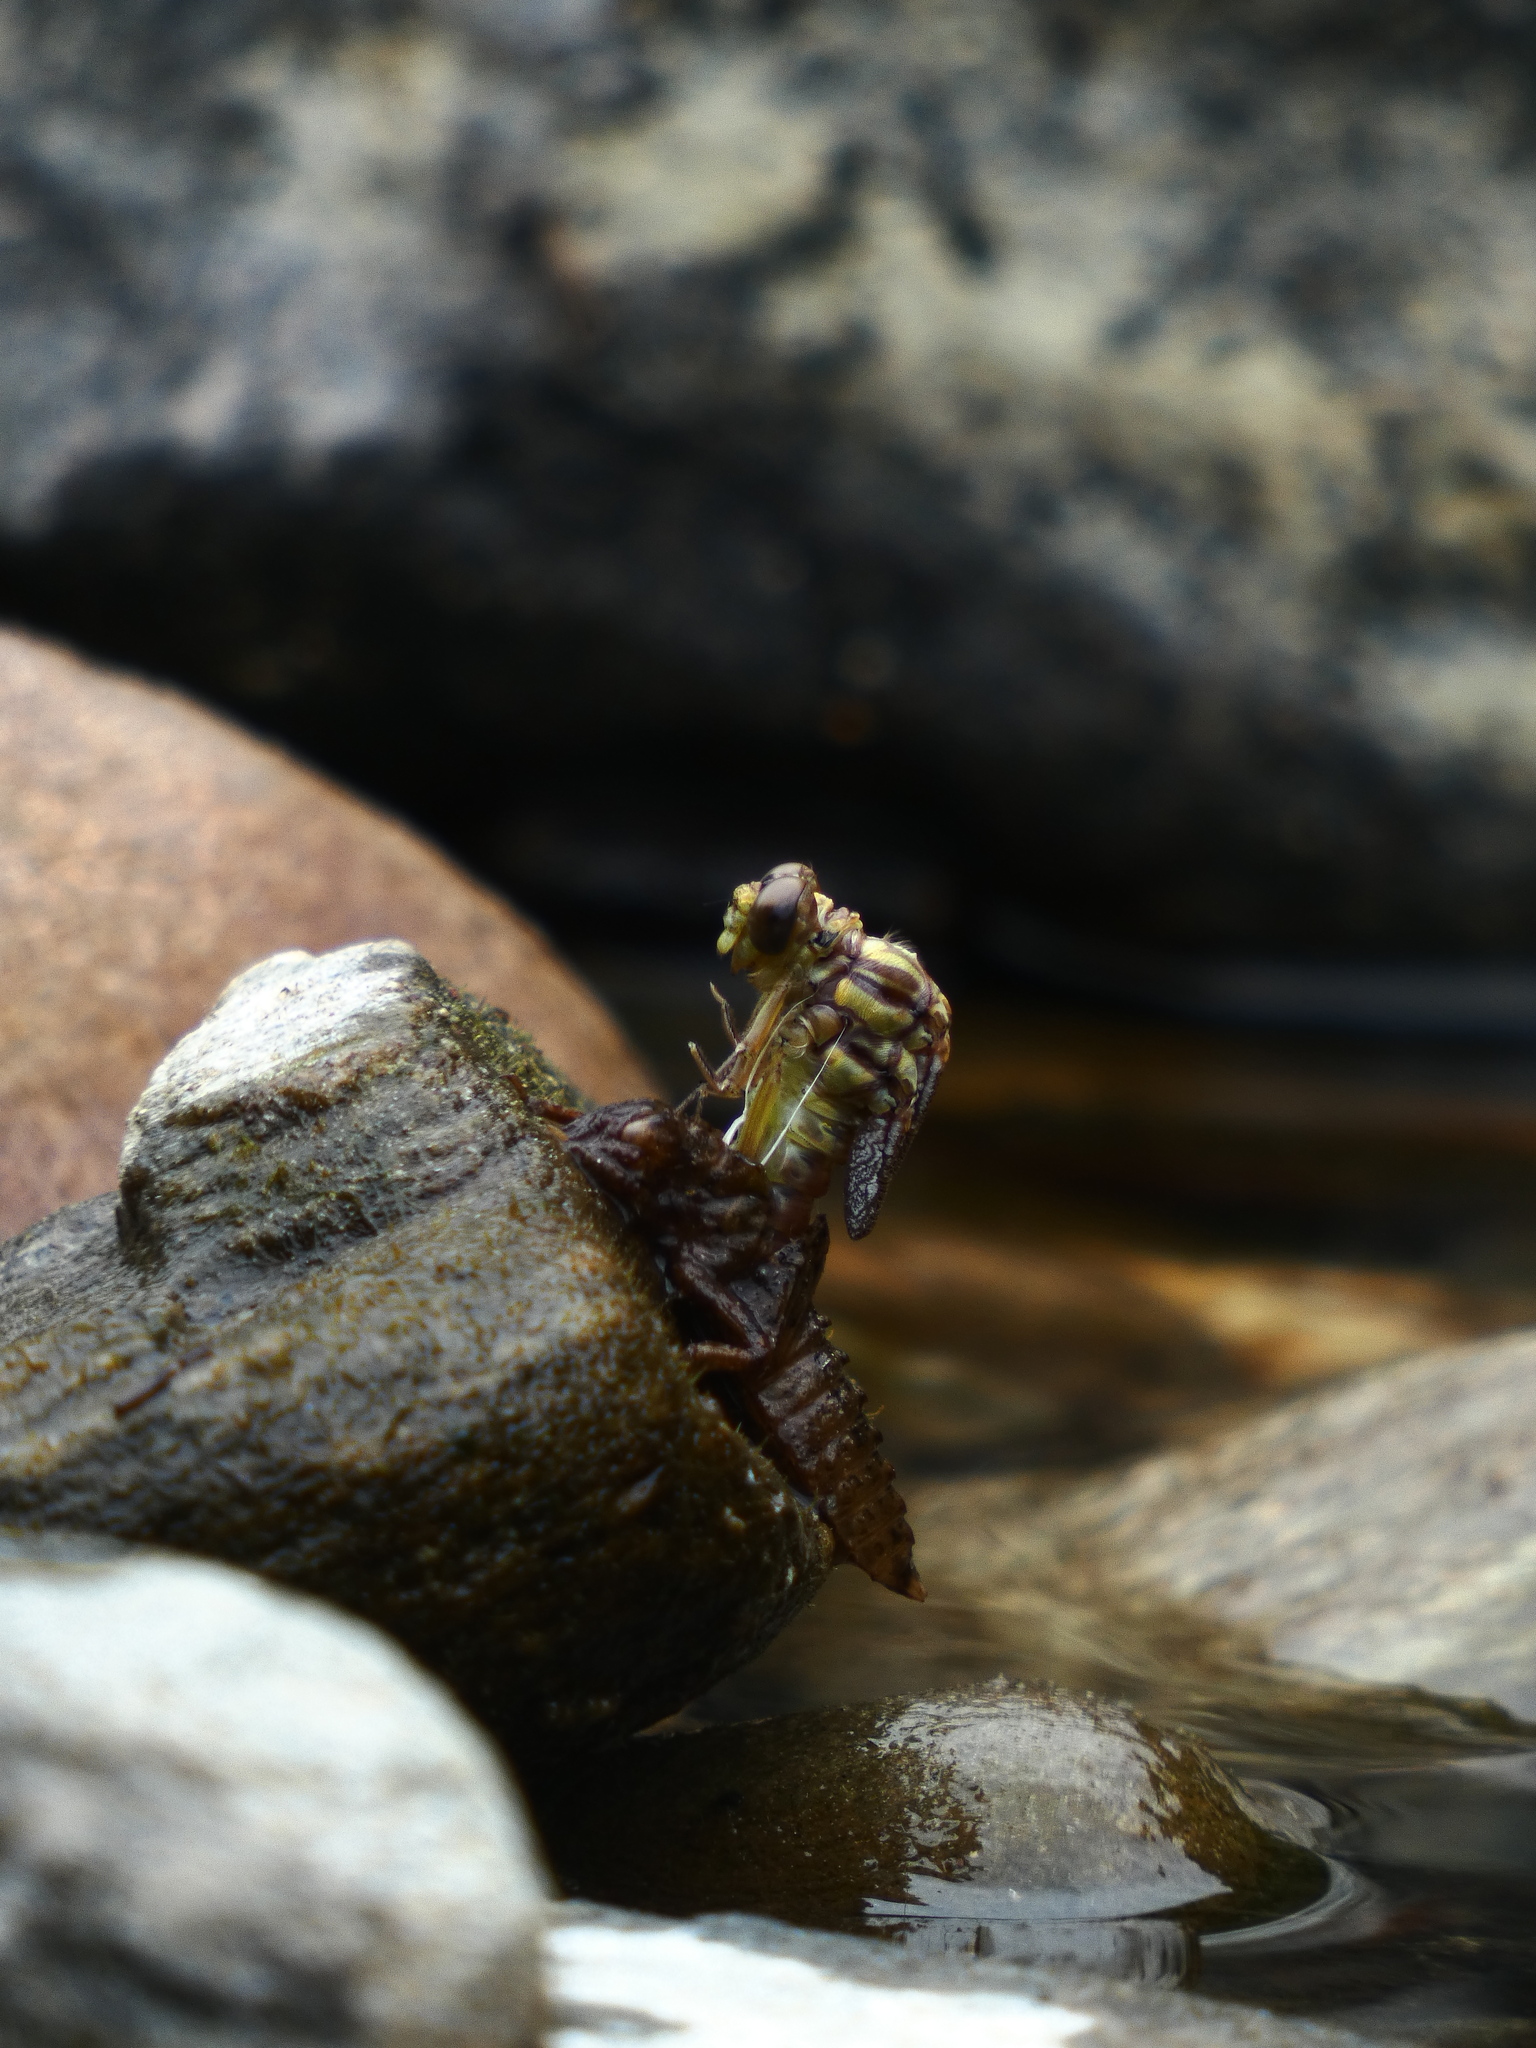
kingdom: Animalia
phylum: Arthropoda
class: Insecta
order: Odonata
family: Gomphidae
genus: Onychogomphus
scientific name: Onychogomphus uncatus
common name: Large pincertail
